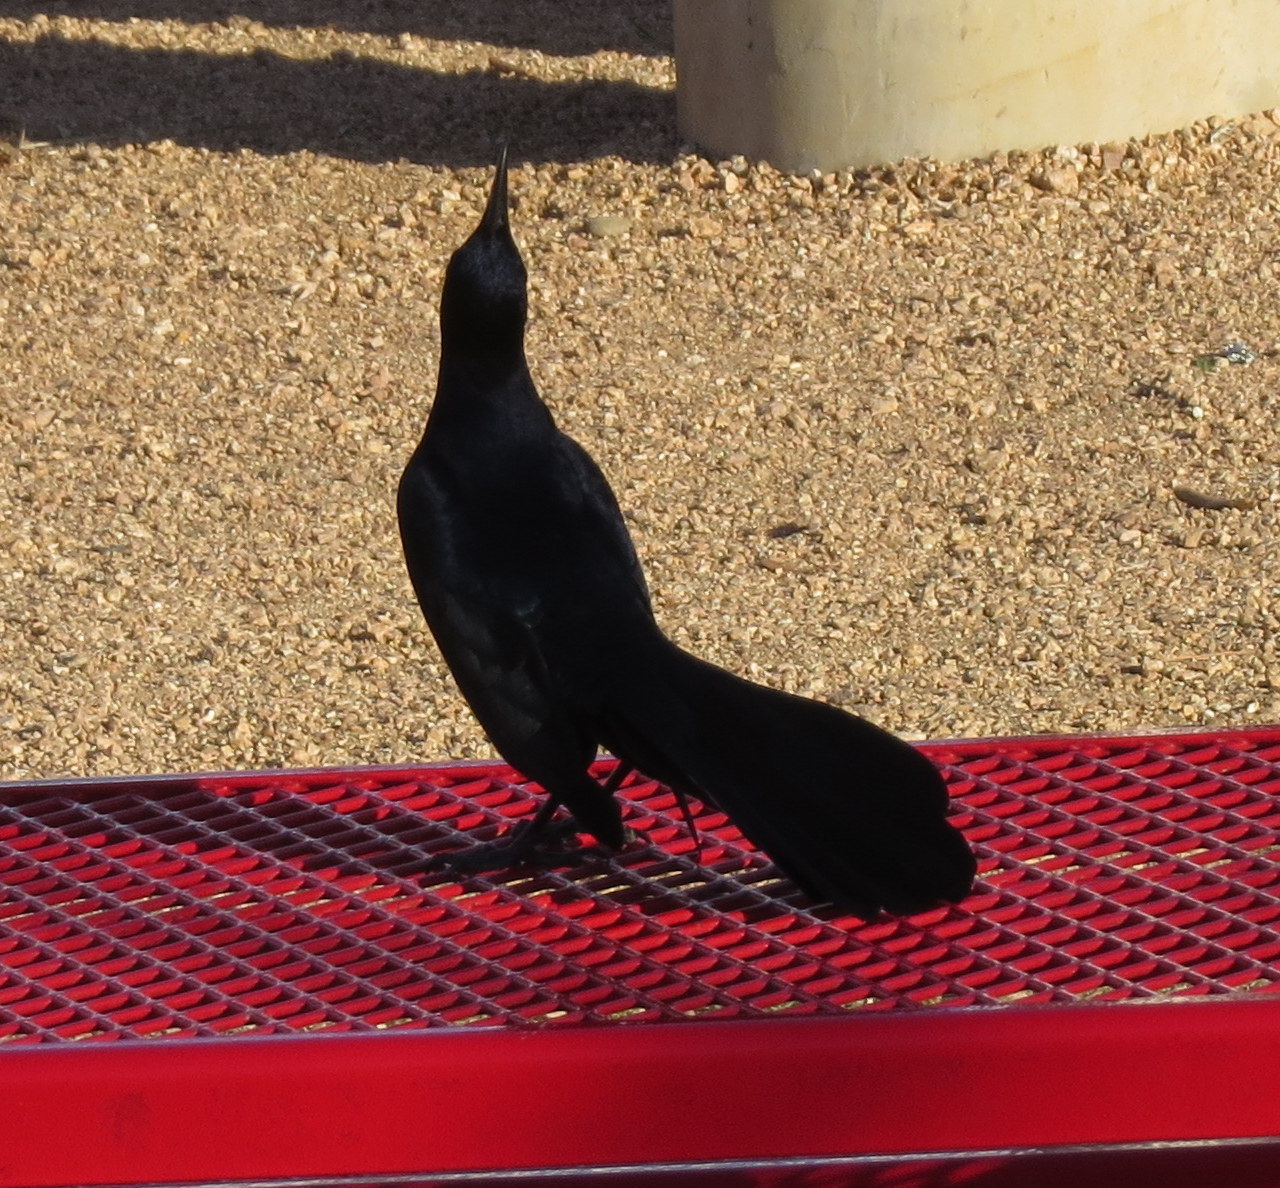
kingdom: Animalia
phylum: Chordata
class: Aves
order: Passeriformes
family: Icteridae
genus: Quiscalus
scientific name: Quiscalus mexicanus
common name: Great-tailed grackle
